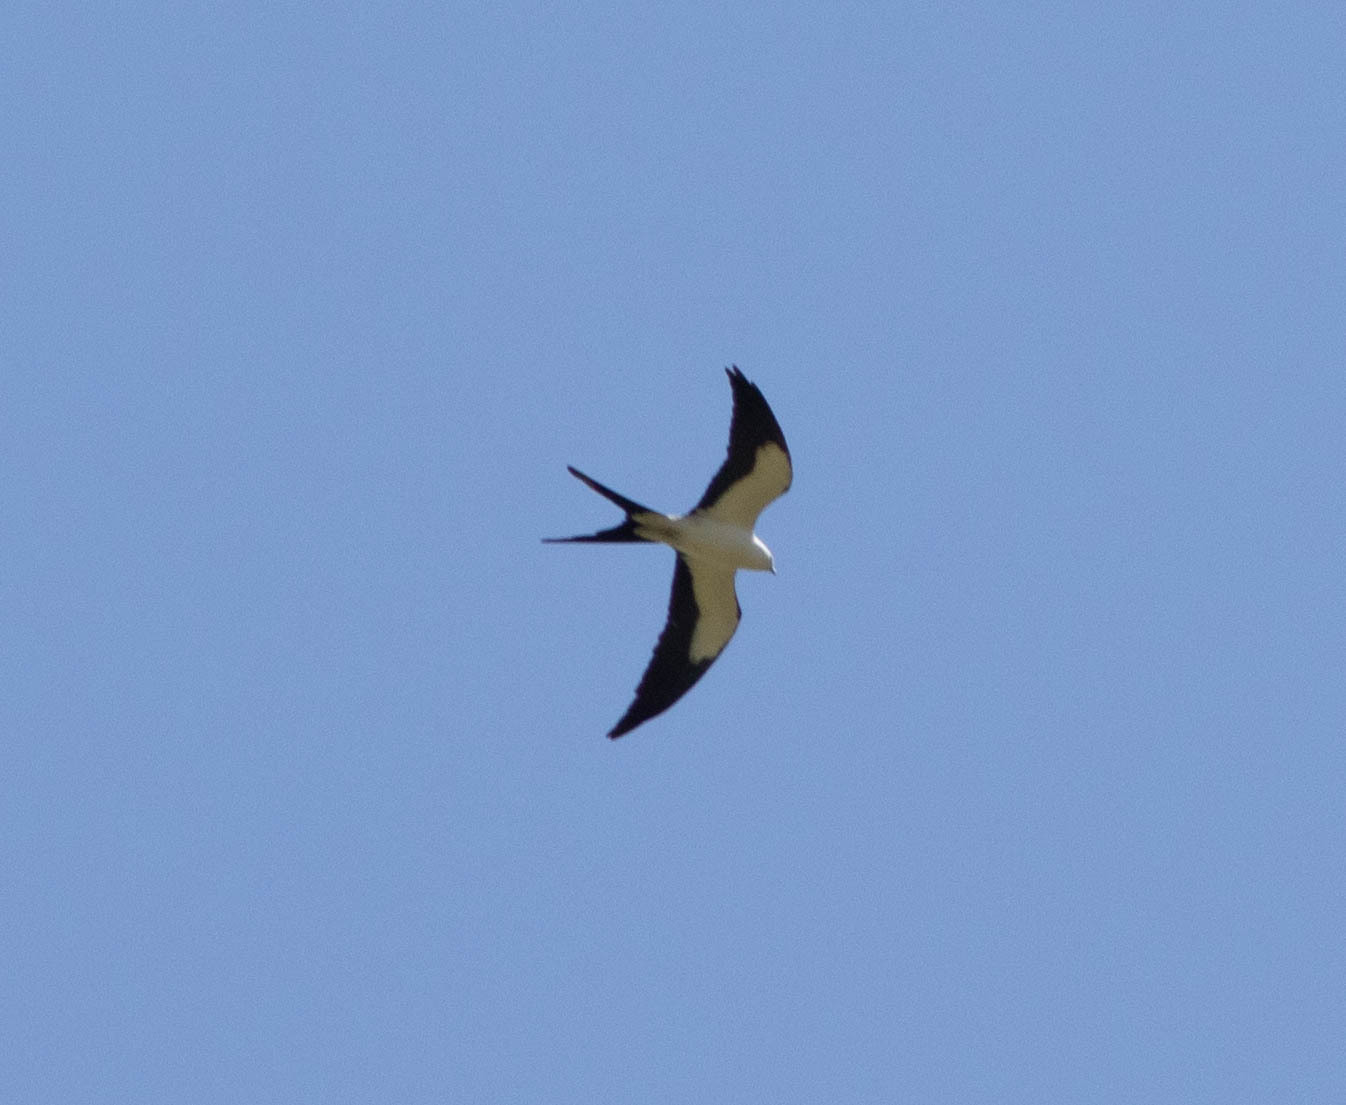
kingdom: Animalia
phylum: Chordata
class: Aves
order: Accipitriformes
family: Accipitridae
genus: Elanoides
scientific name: Elanoides forficatus
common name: Swallow-tailed kite
